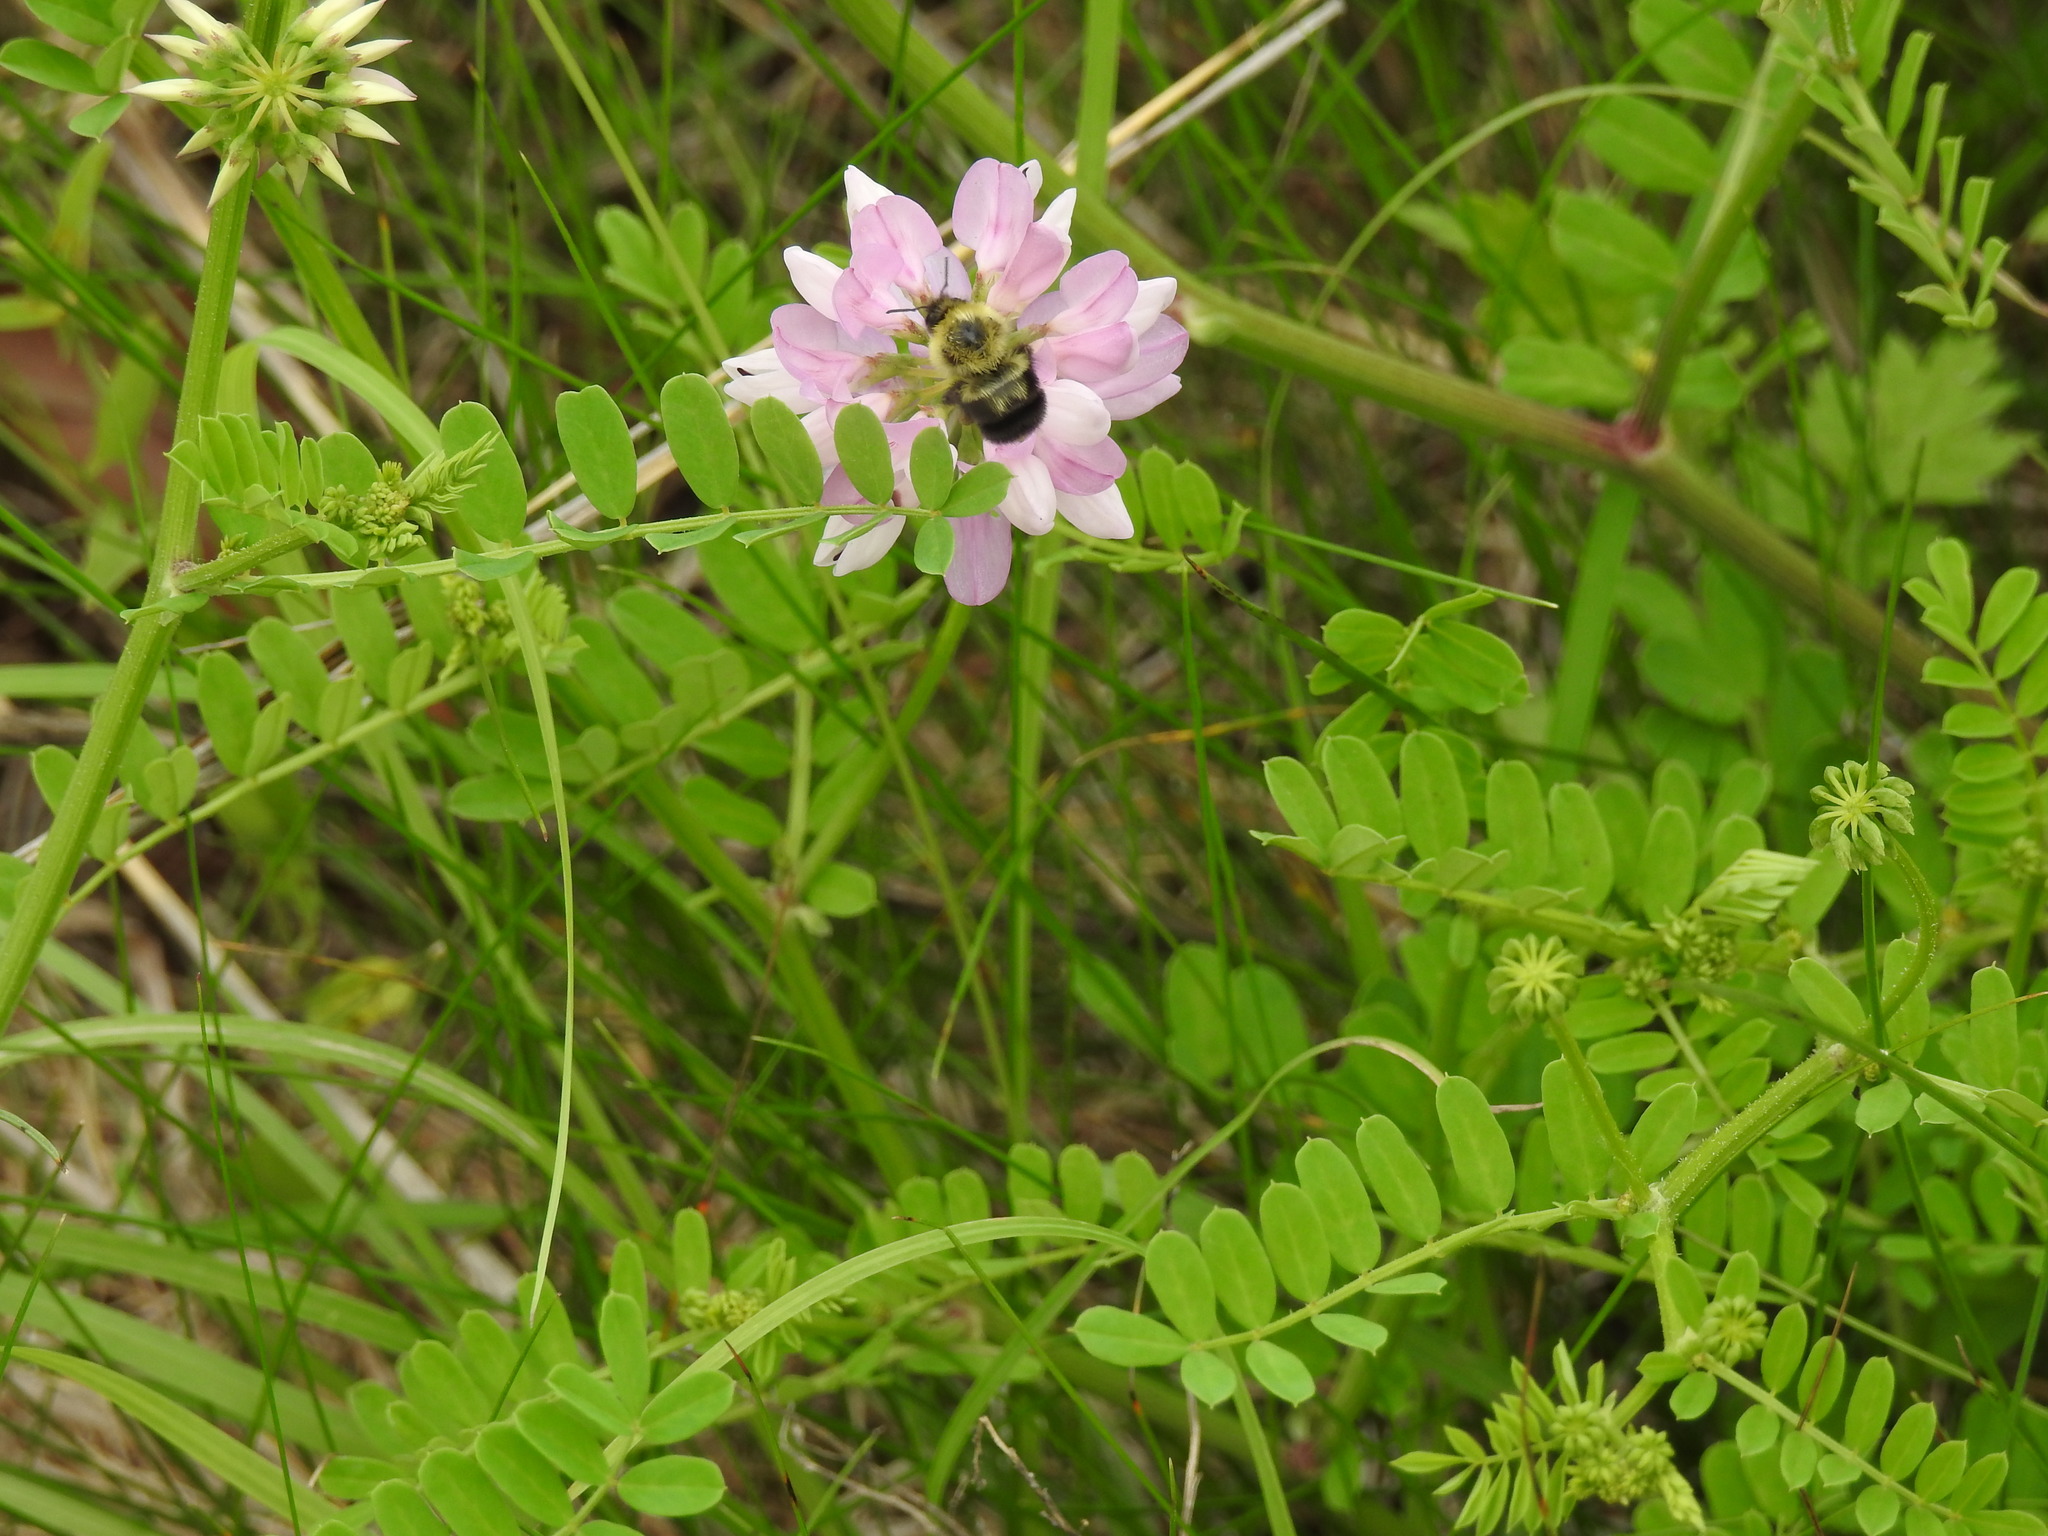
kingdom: Animalia
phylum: Arthropoda
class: Insecta
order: Hymenoptera
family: Apidae
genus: Bombus
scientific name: Bombus bimaculatus
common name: Two-spotted bumble bee
